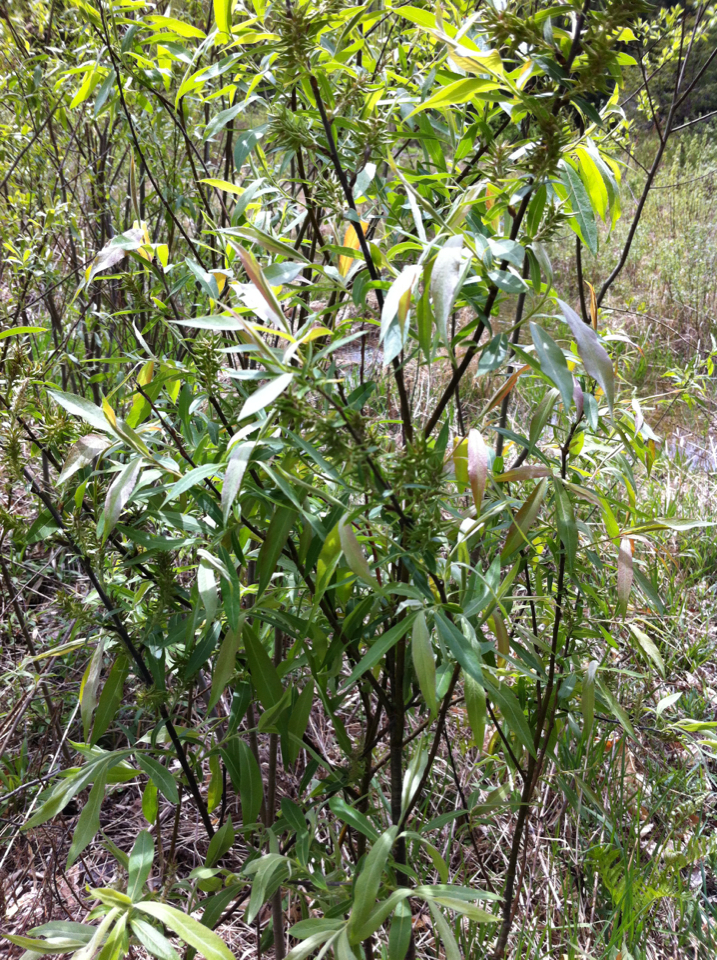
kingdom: Plantae
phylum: Tracheophyta
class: Magnoliopsida
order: Malpighiales
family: Salicaceae
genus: Salix
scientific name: Salix sericea
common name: Silky willow
